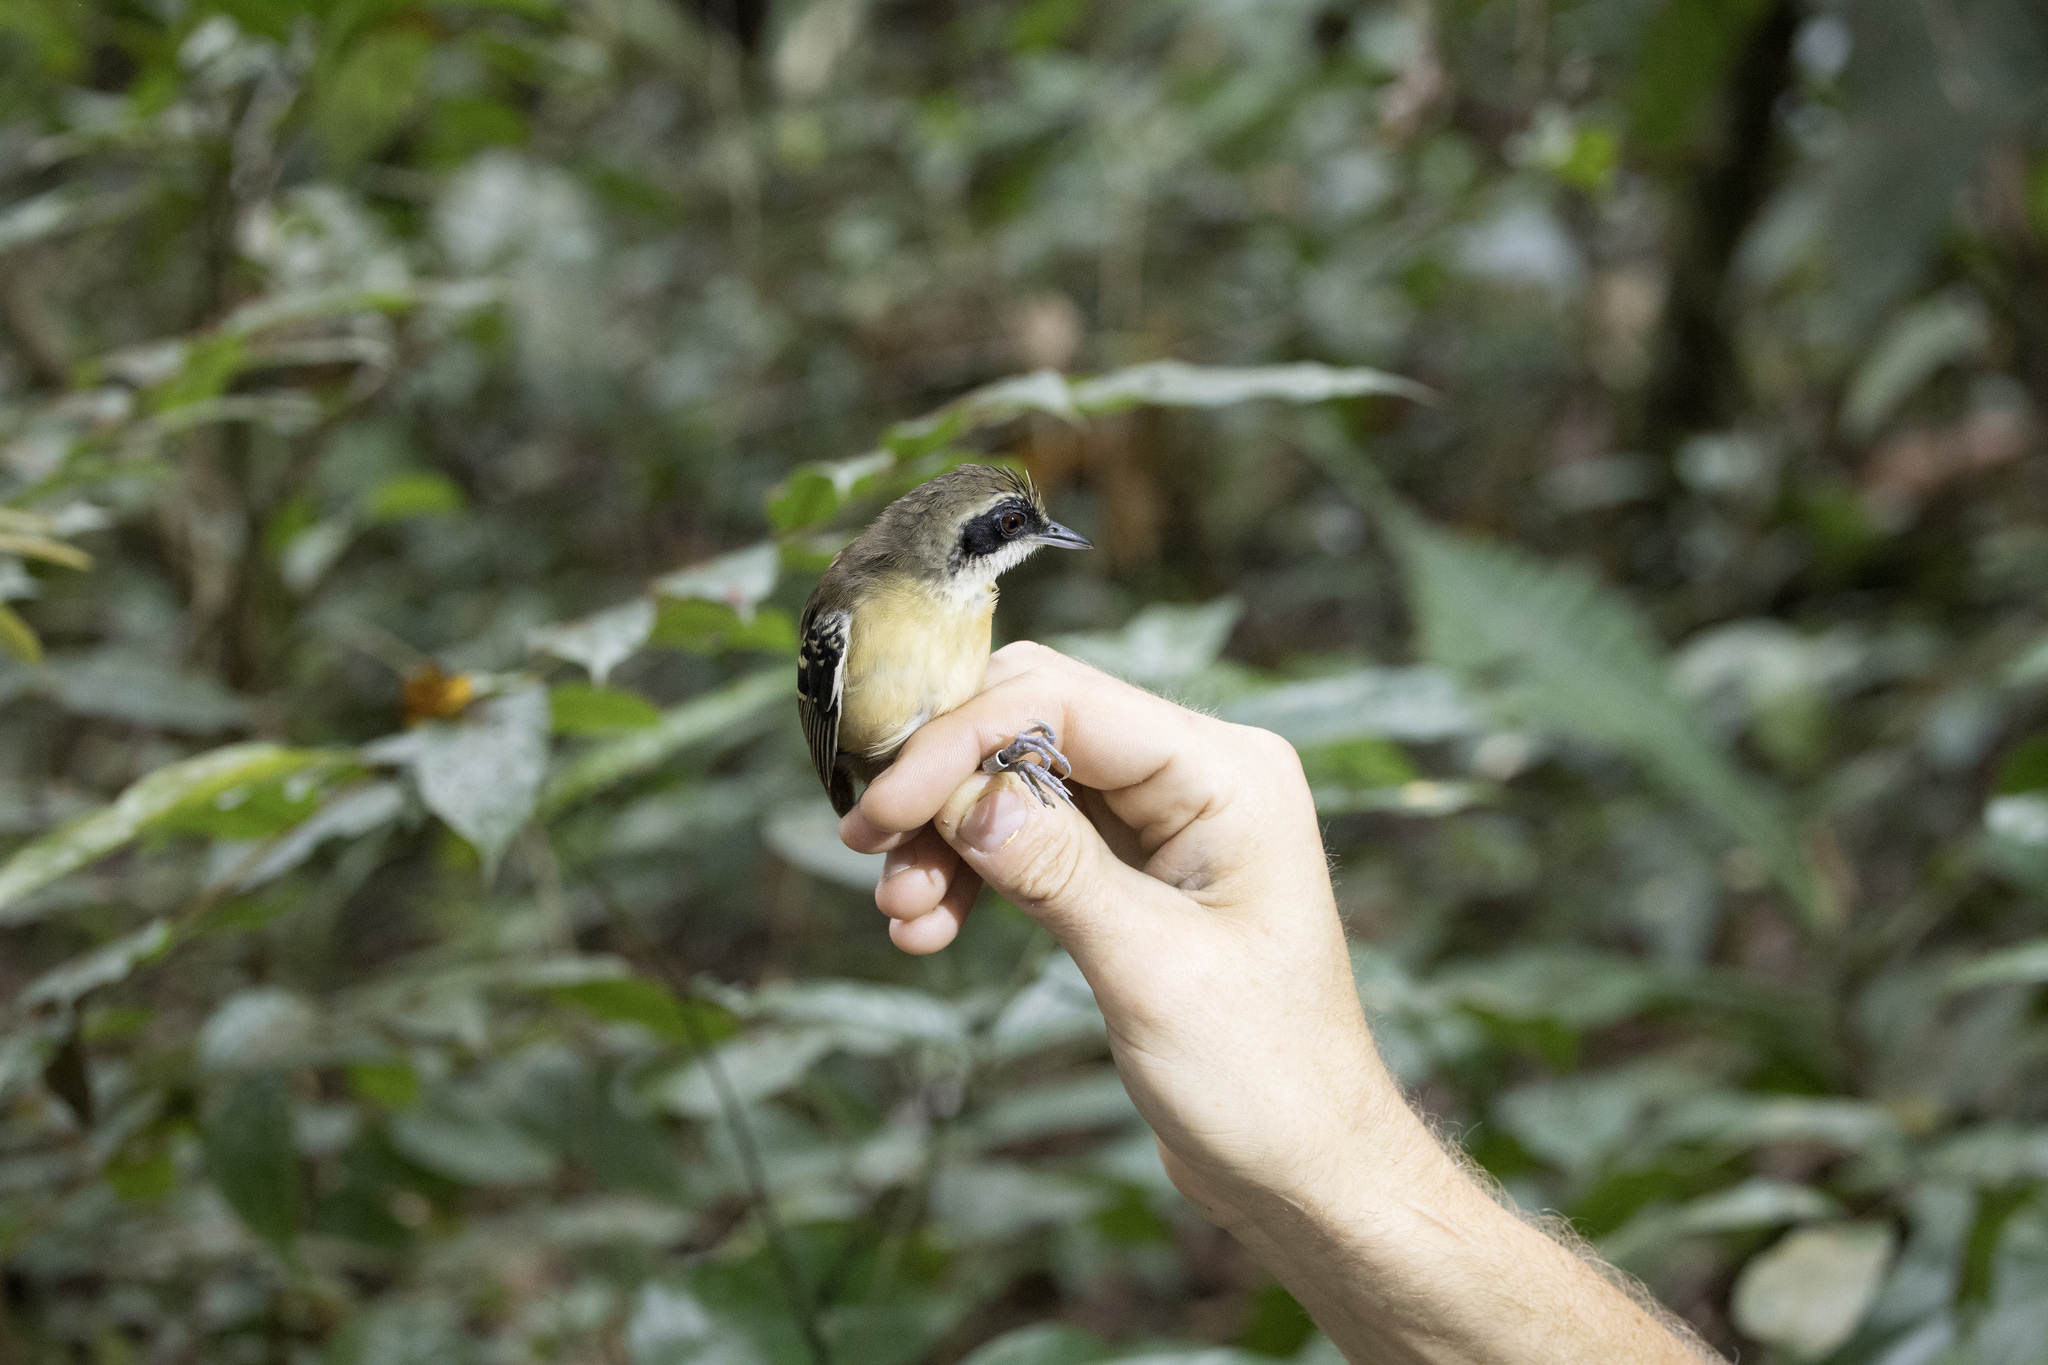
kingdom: Animalia
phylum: Chordata
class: Aves
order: Passeriformes
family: Thamnophilidae
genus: Myrmoborus
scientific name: Myrmoborus myotherinus
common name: Black-faced antbird
